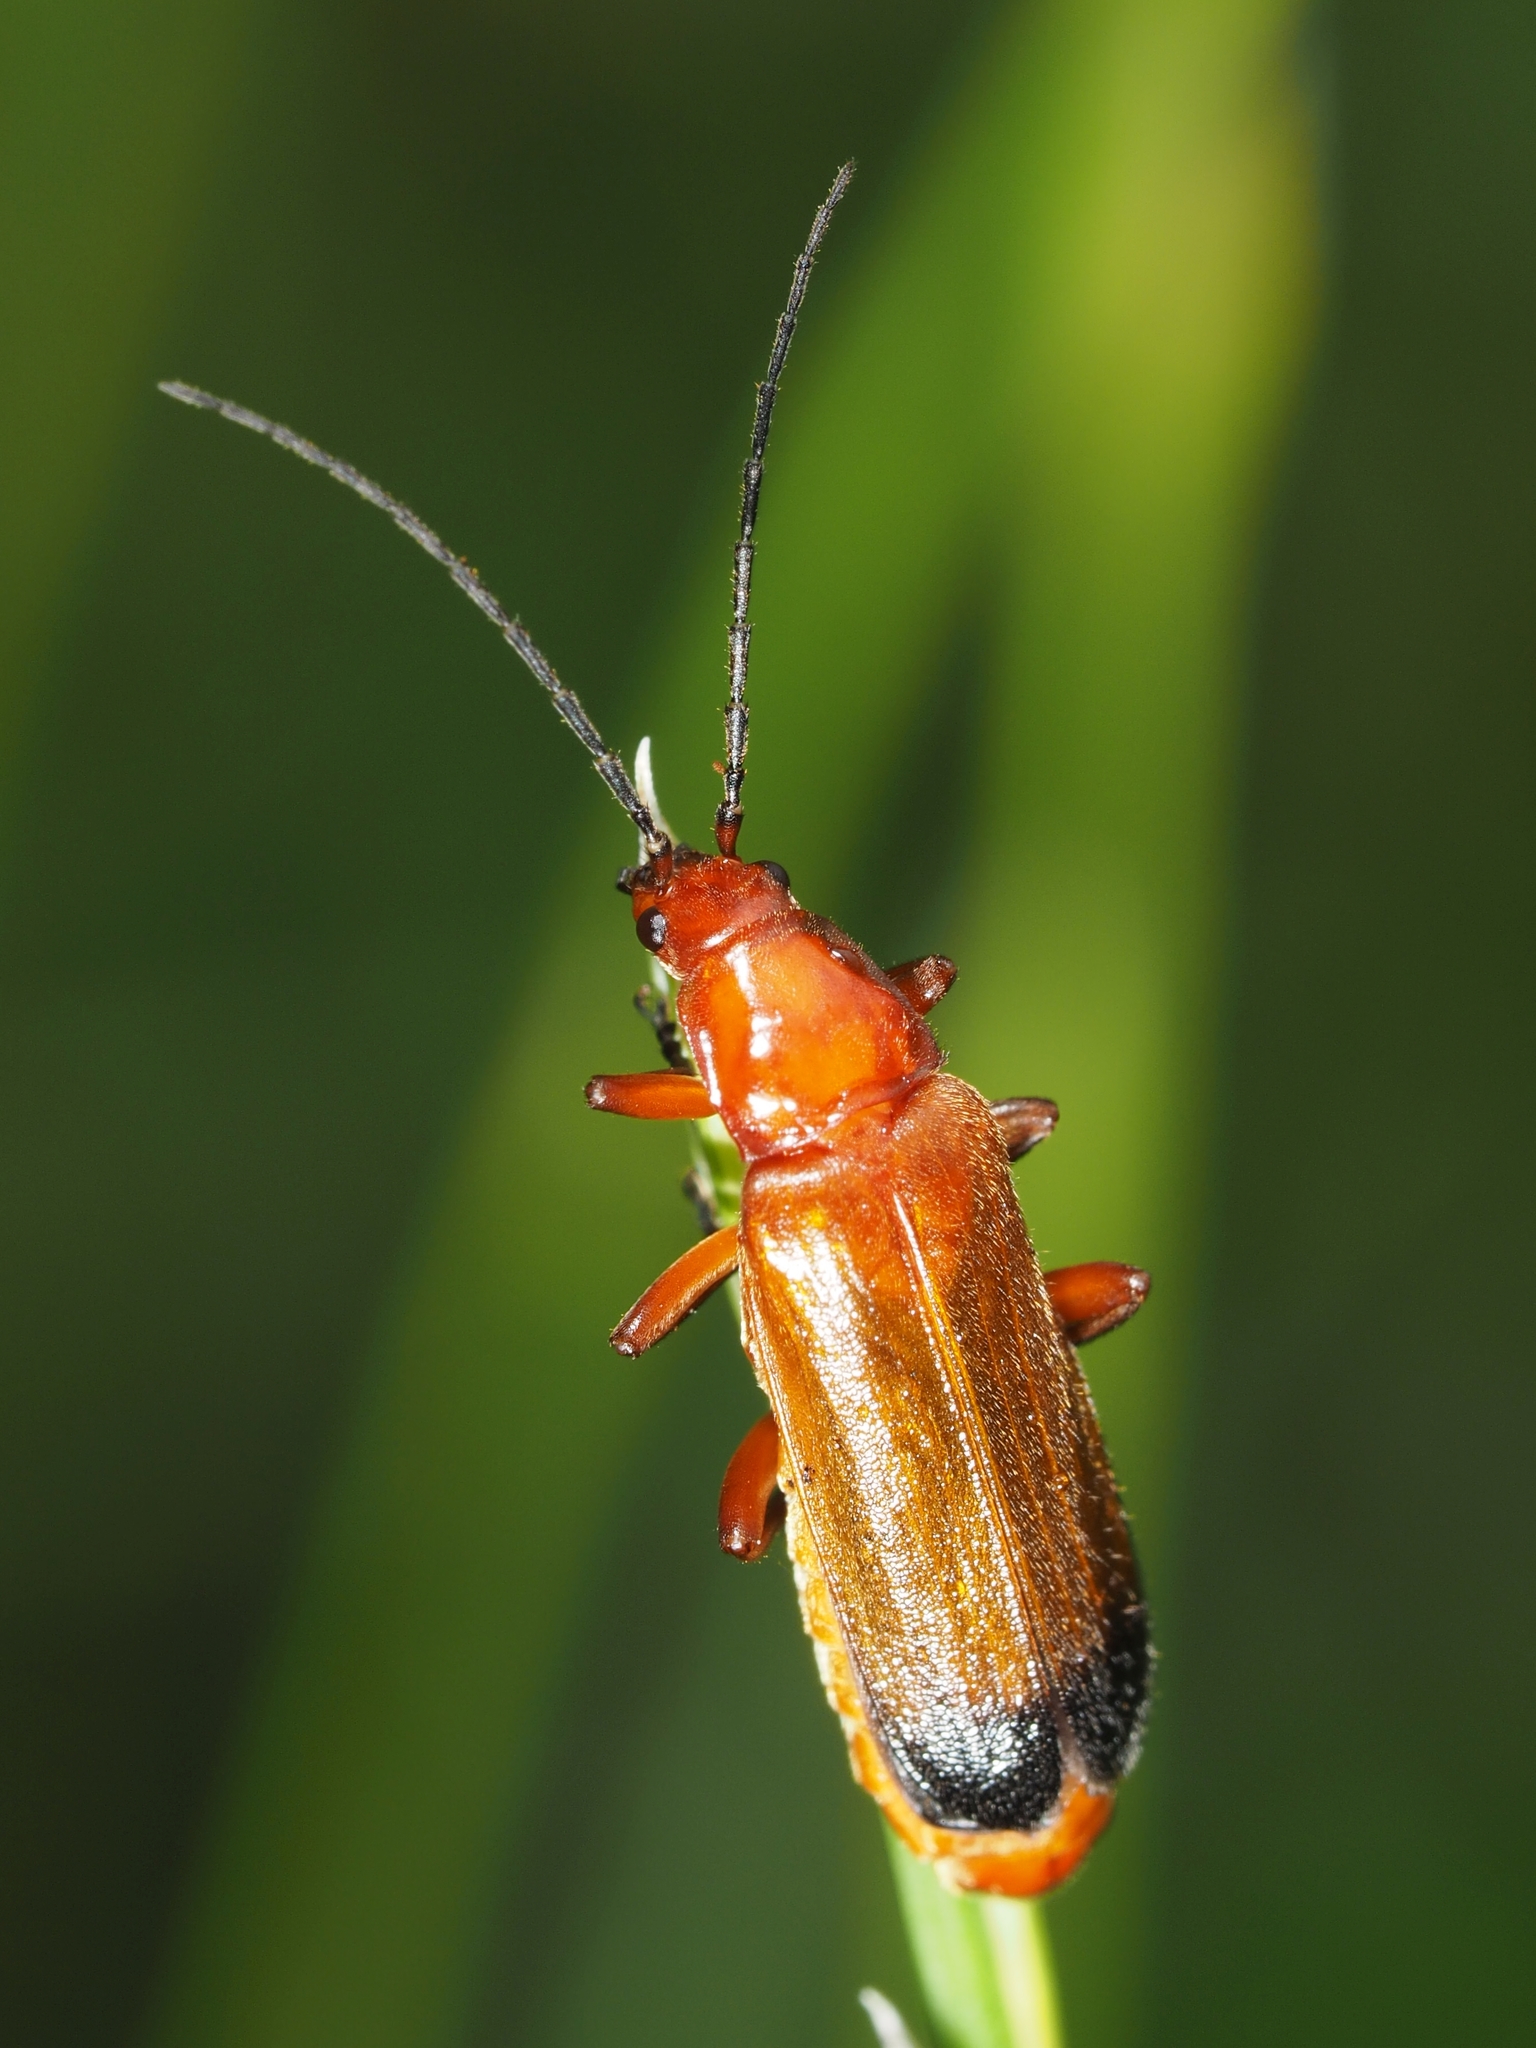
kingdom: Animalia
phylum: Arthropoda
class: Insecta
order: Coleoptera
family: Cantharidae
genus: Rhagonycha
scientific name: Rhagonycha fulva
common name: Common red soldier beetle
